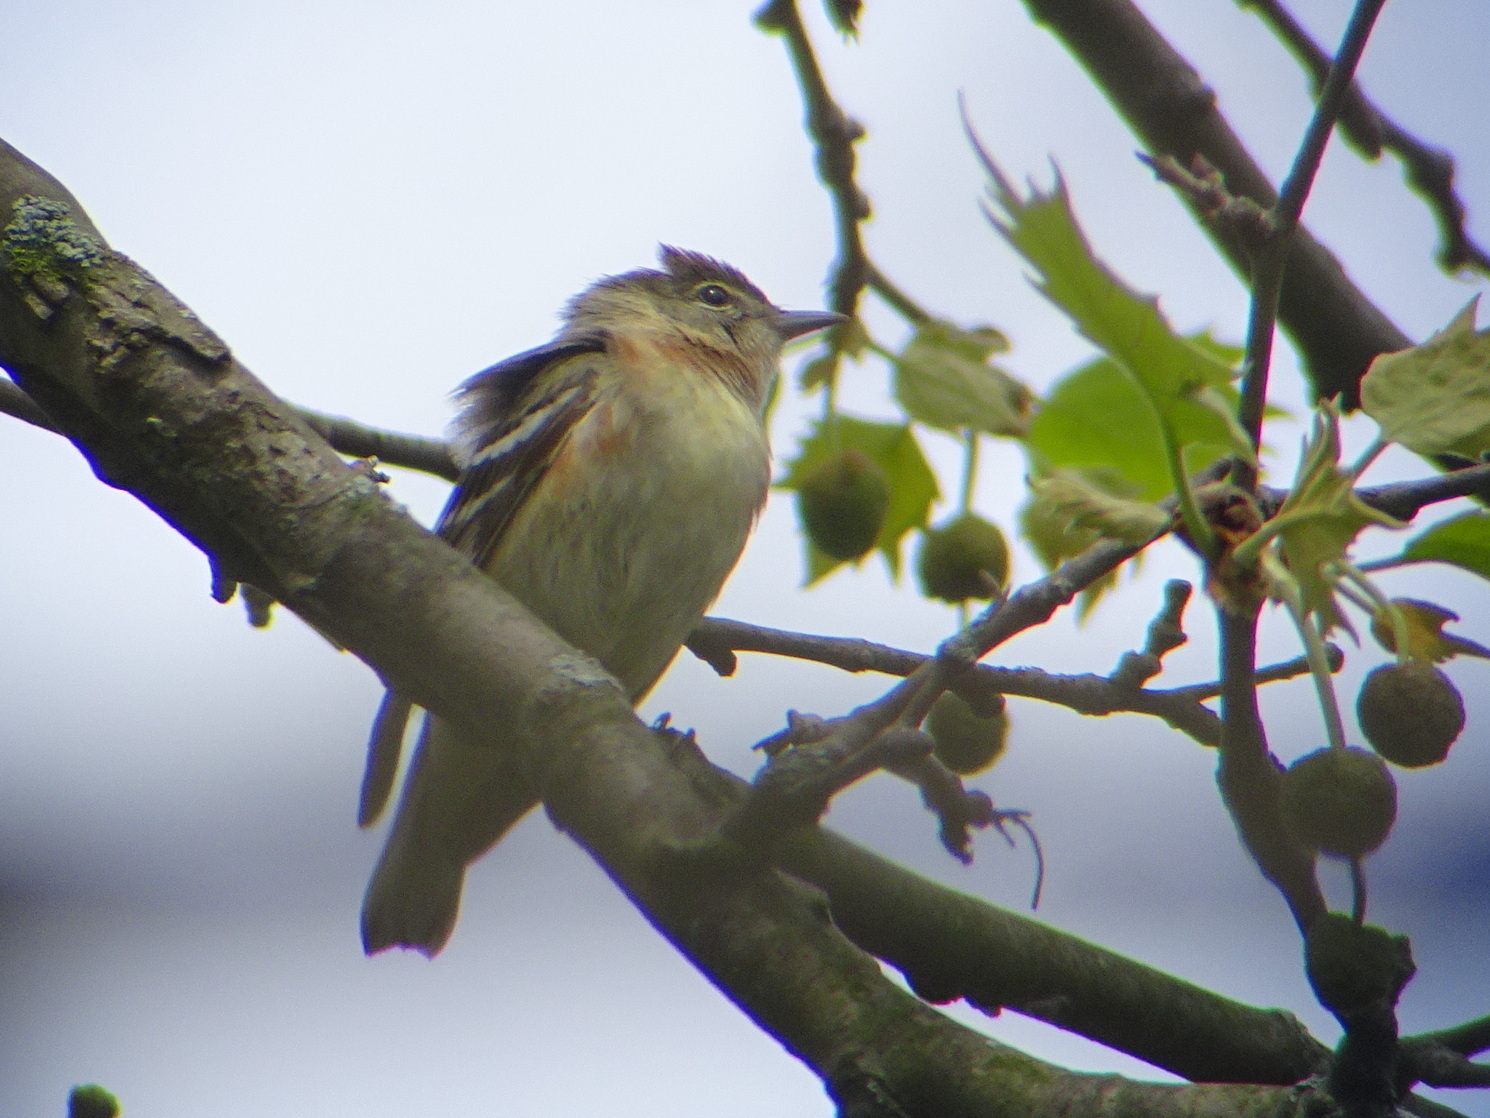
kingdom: Animalia
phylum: Chordata
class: Aves
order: Passeriformes
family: Parulidae
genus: Setophaga
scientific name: Setophaga castanea
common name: Bay-breasted warbler
